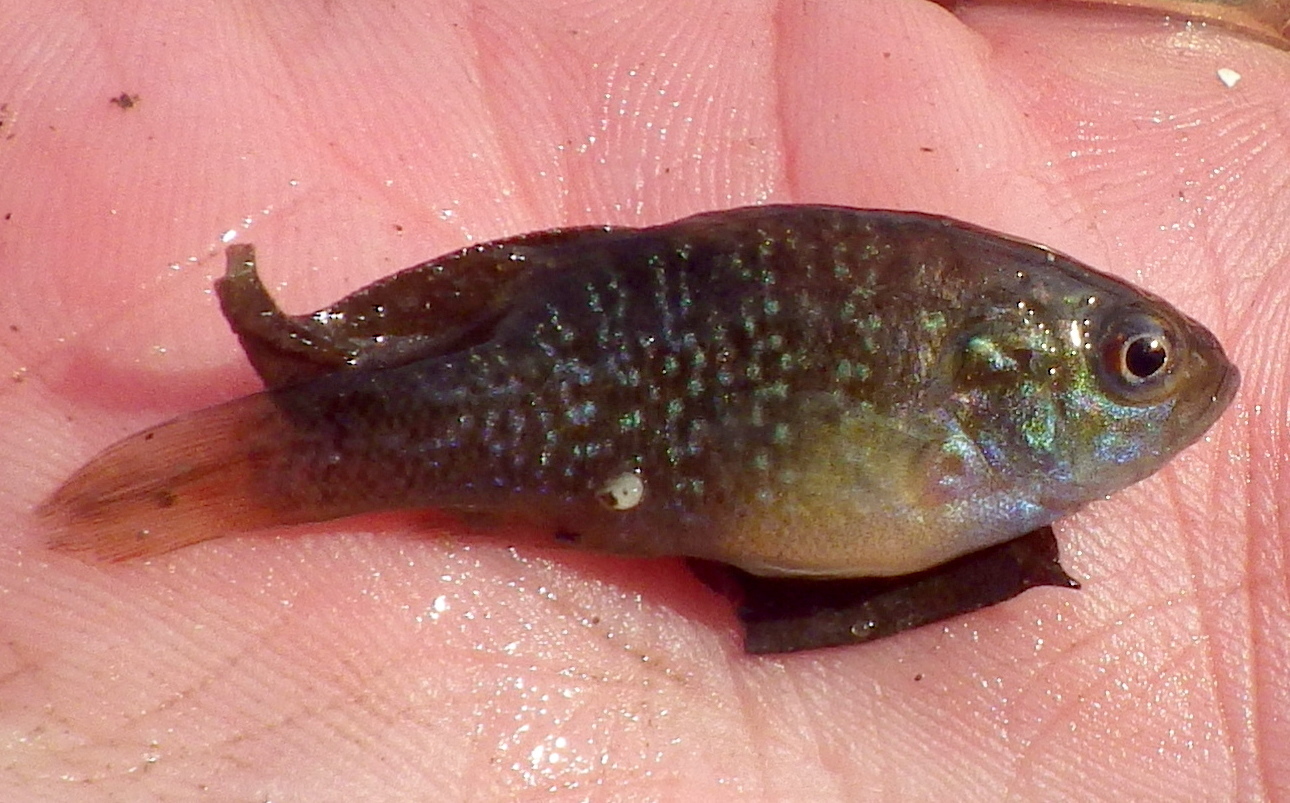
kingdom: Animalia
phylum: Chordata
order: Perciformes
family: Centrarchidae
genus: Lepomis
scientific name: Lepomis cyanellus
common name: Green sunfish
